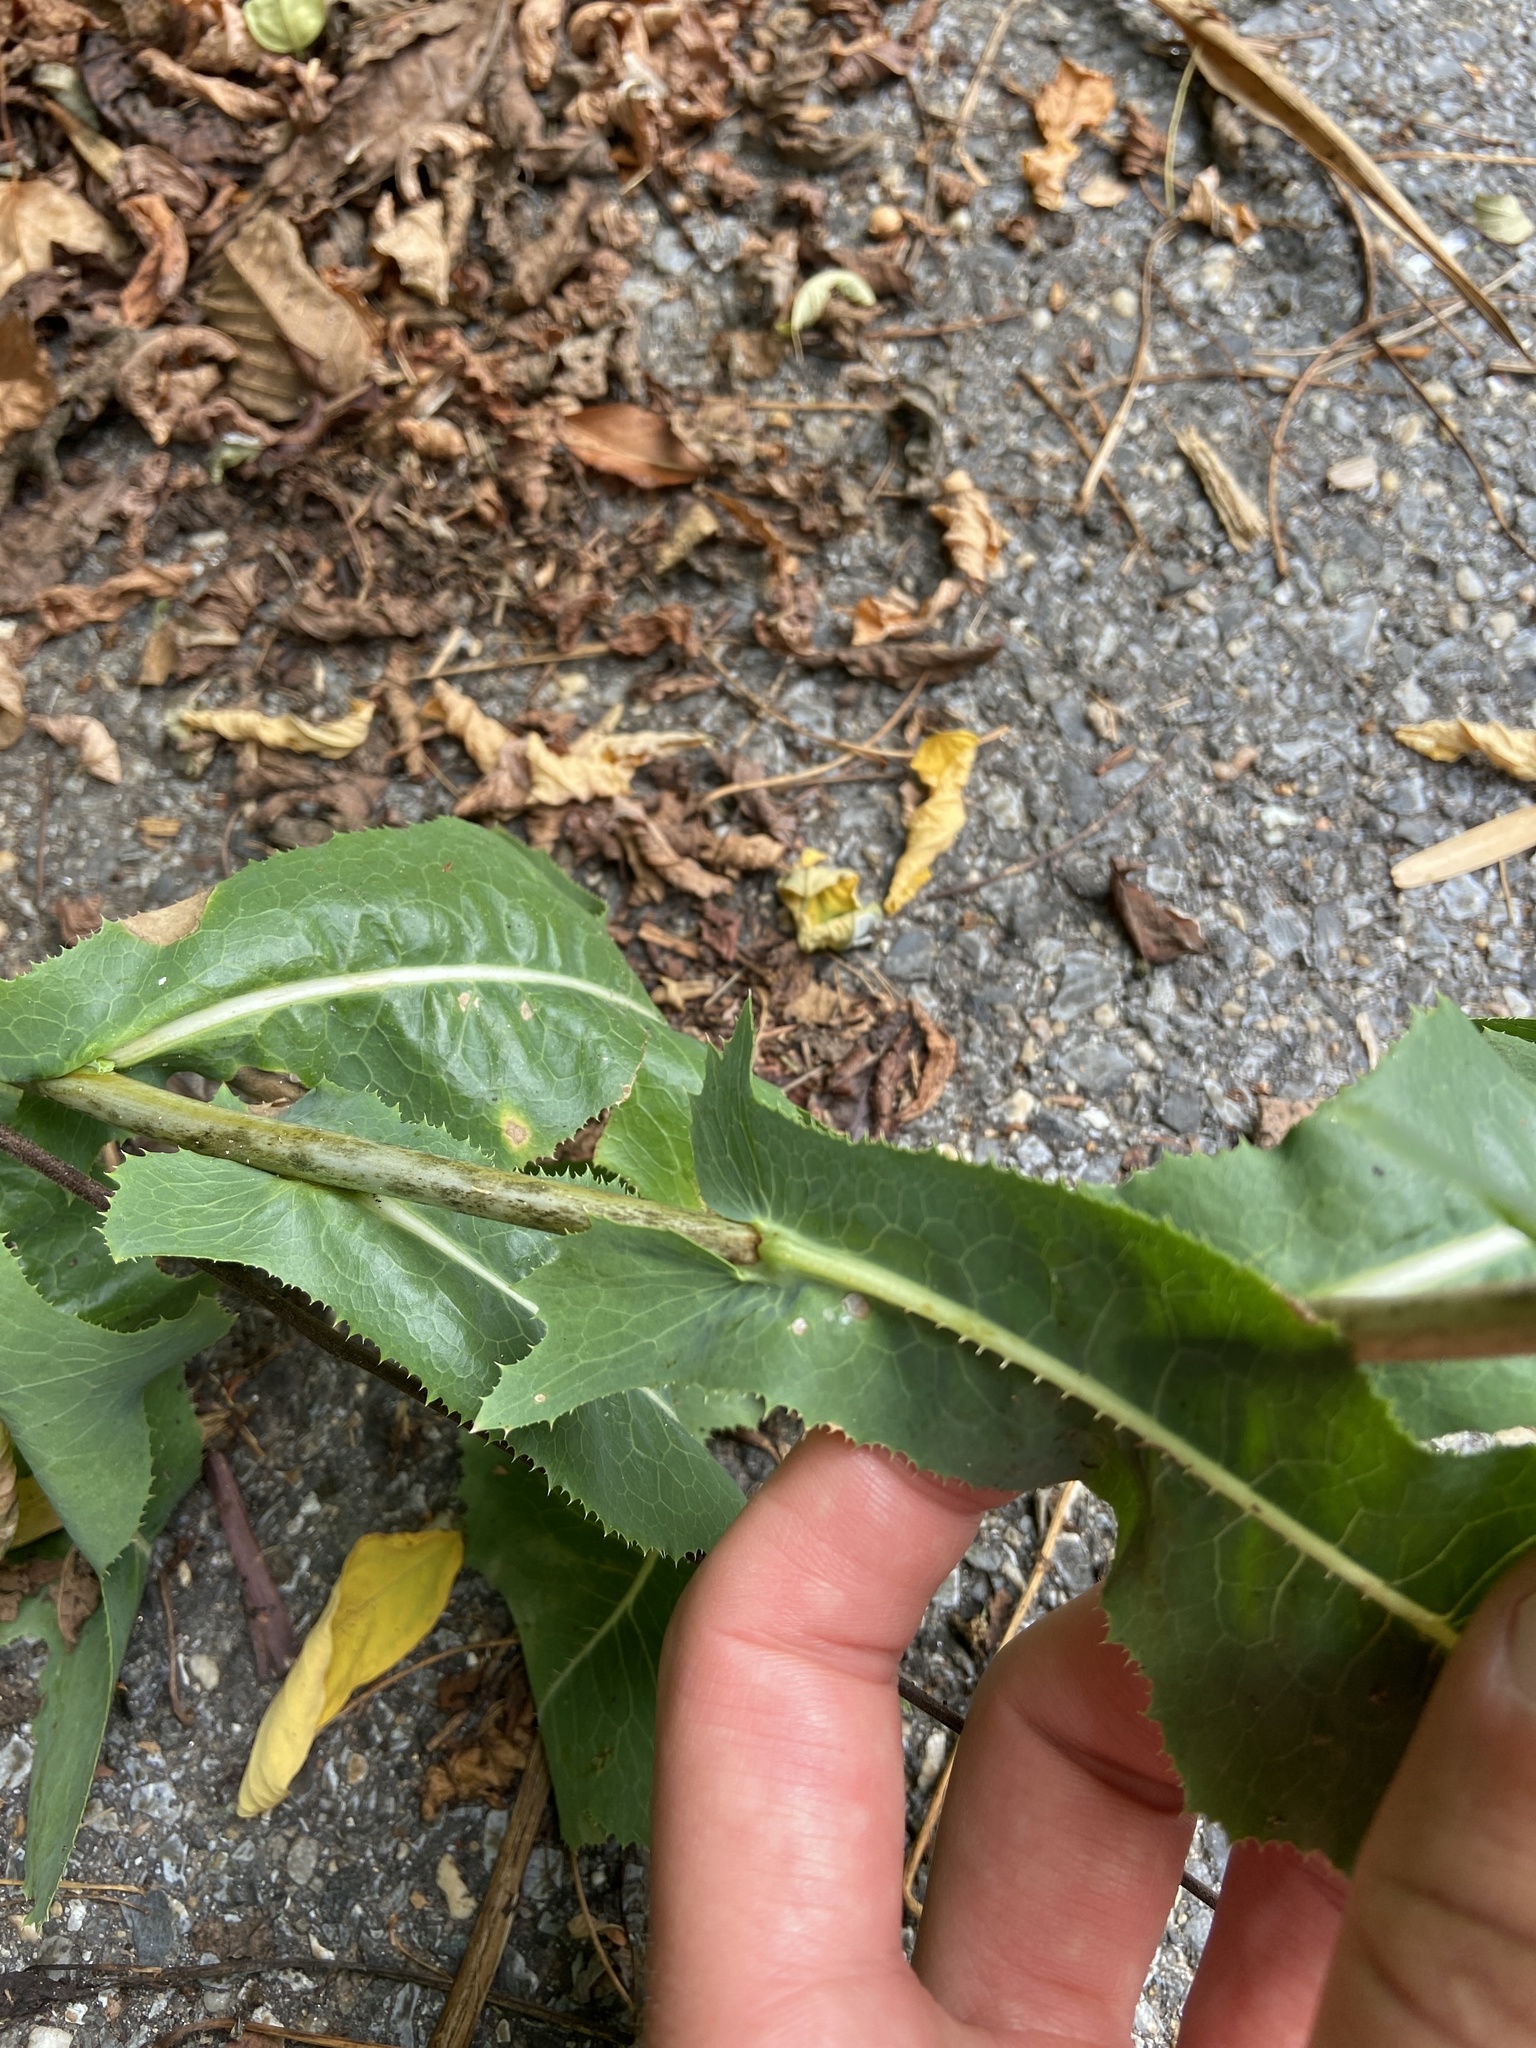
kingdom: Plantae
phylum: Tracheophyta
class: Magnoliopsida
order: Asterales
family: Asteraceae
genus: Lactuca
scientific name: Lactuca serriola
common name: Prickly lettuce
